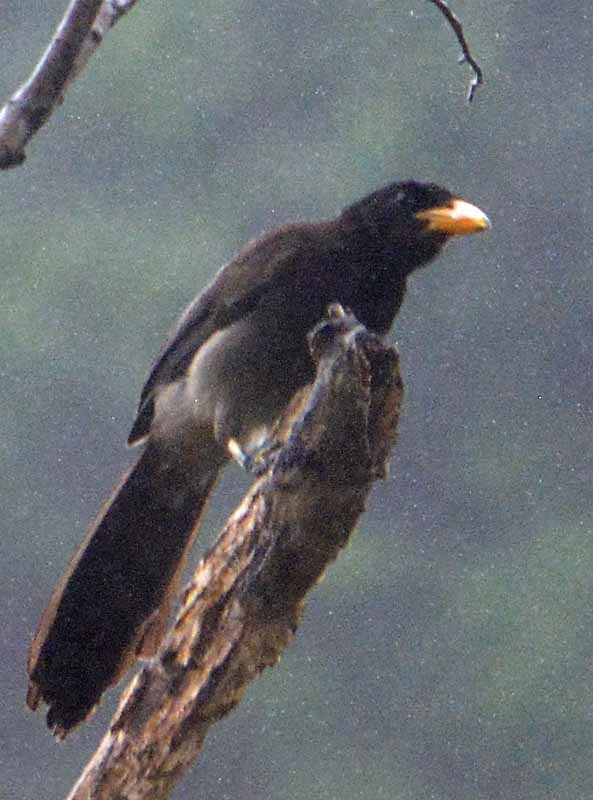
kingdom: Animalia
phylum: Chordata
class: Aves
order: Passeriformes
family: Corvidae
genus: Psilorhinus
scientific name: Psilorhinus morio
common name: Brown jay
